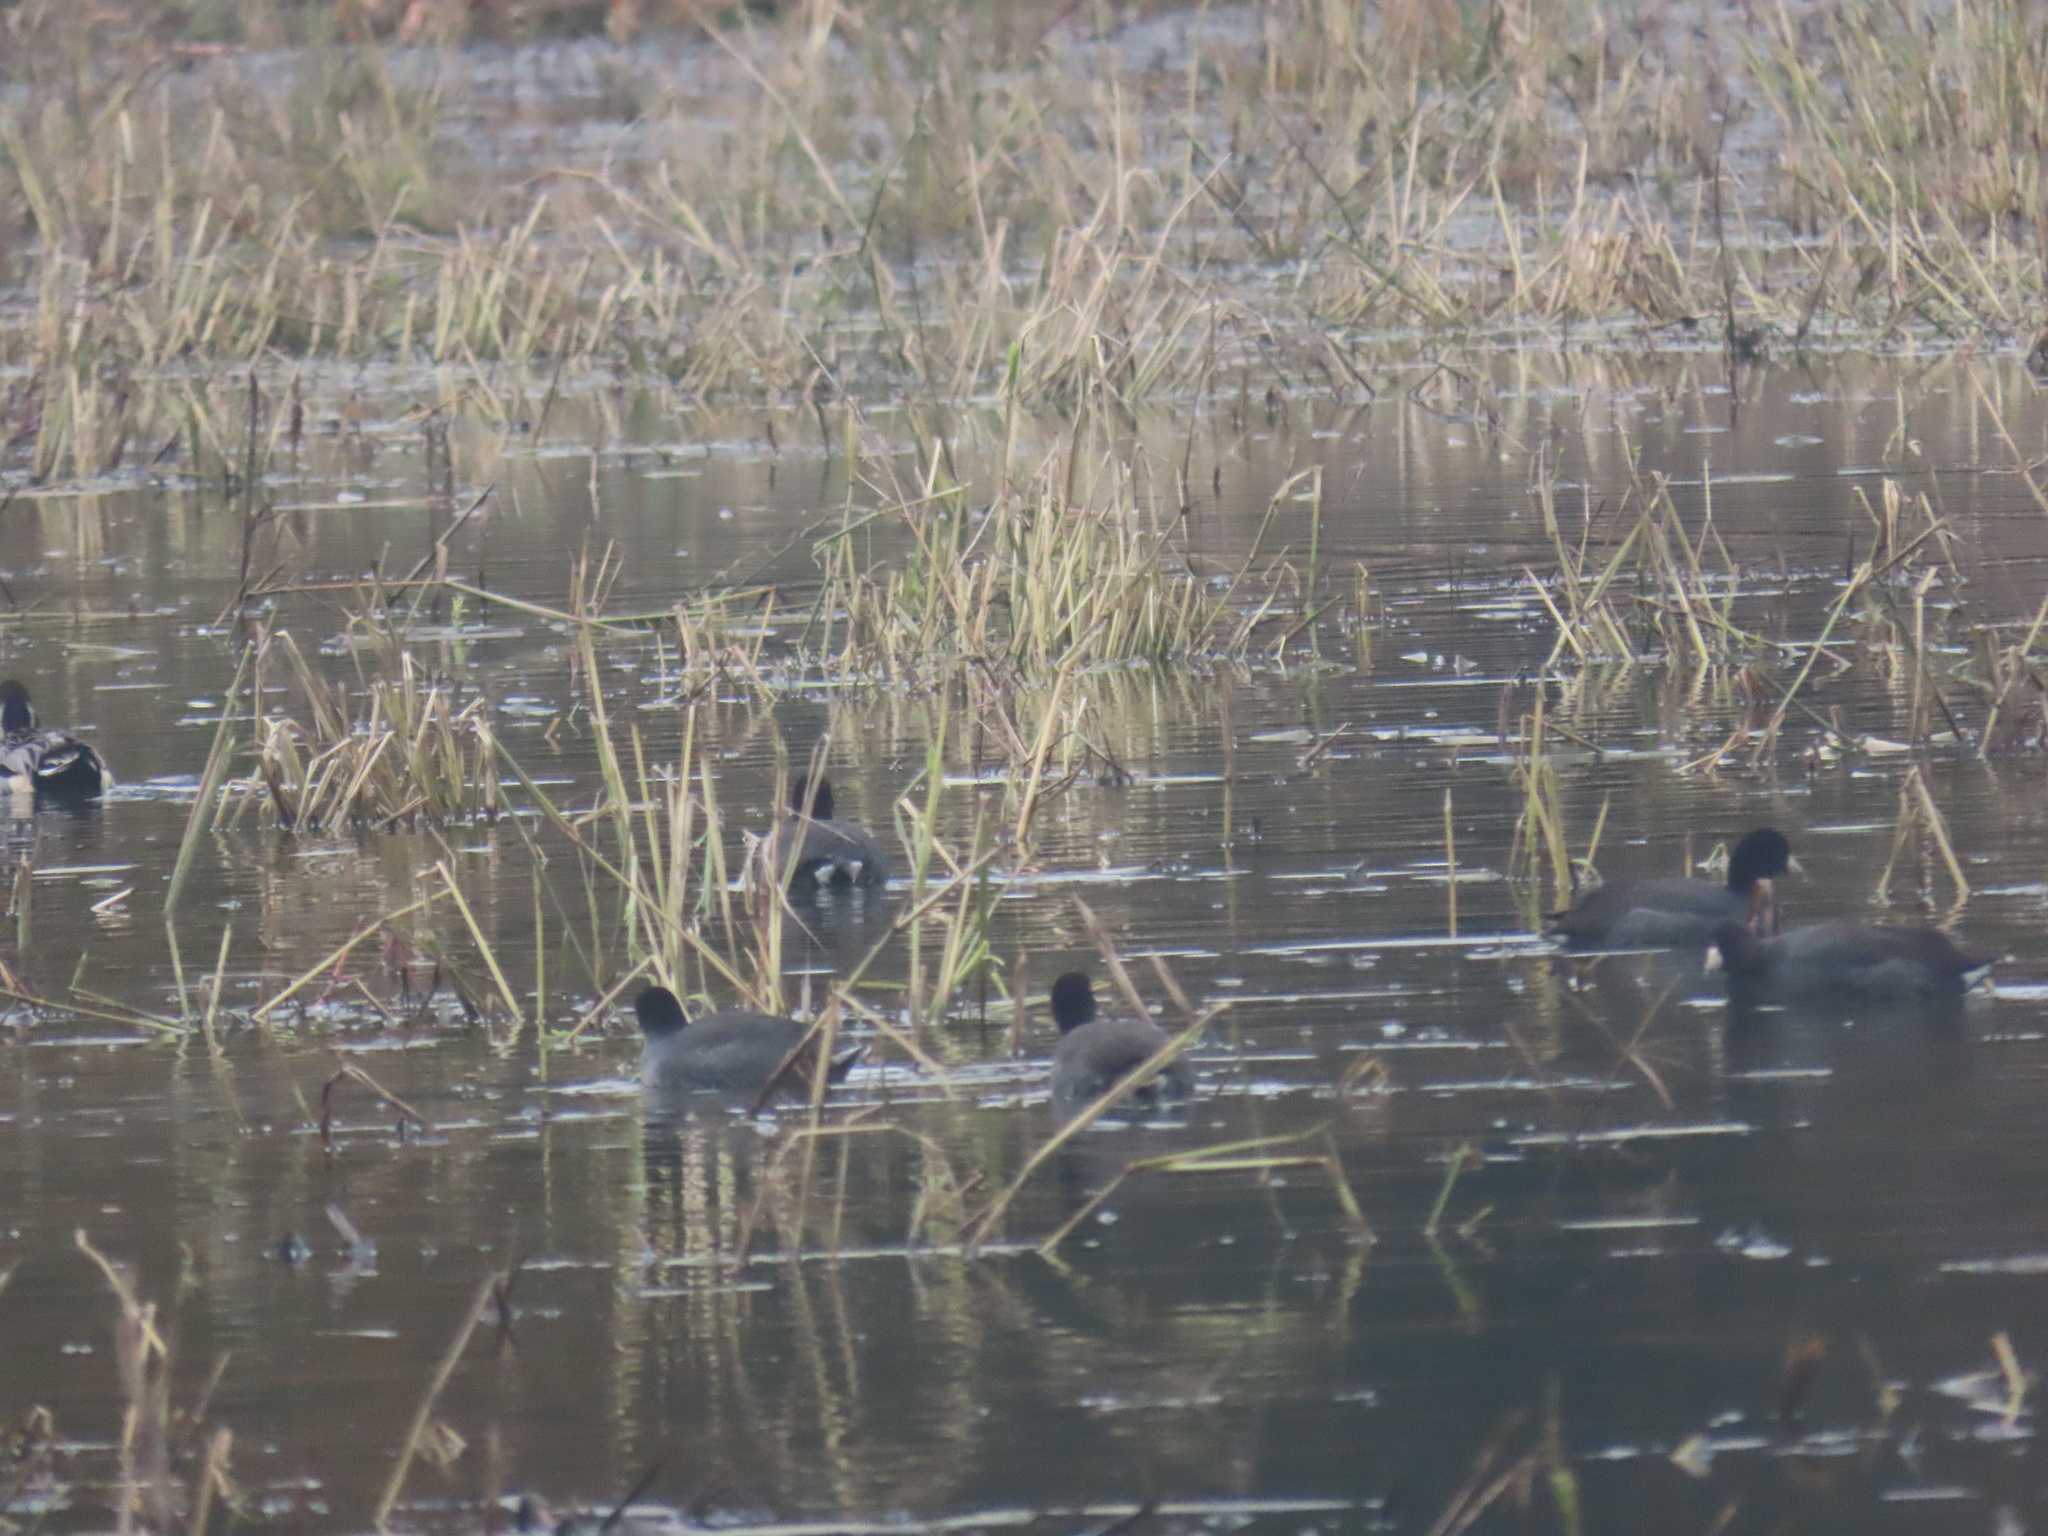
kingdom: Animalia
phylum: Chordata
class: Aves
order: Gruiformes
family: Rallidae
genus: Fulica
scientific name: Fulica americana
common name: American coot
